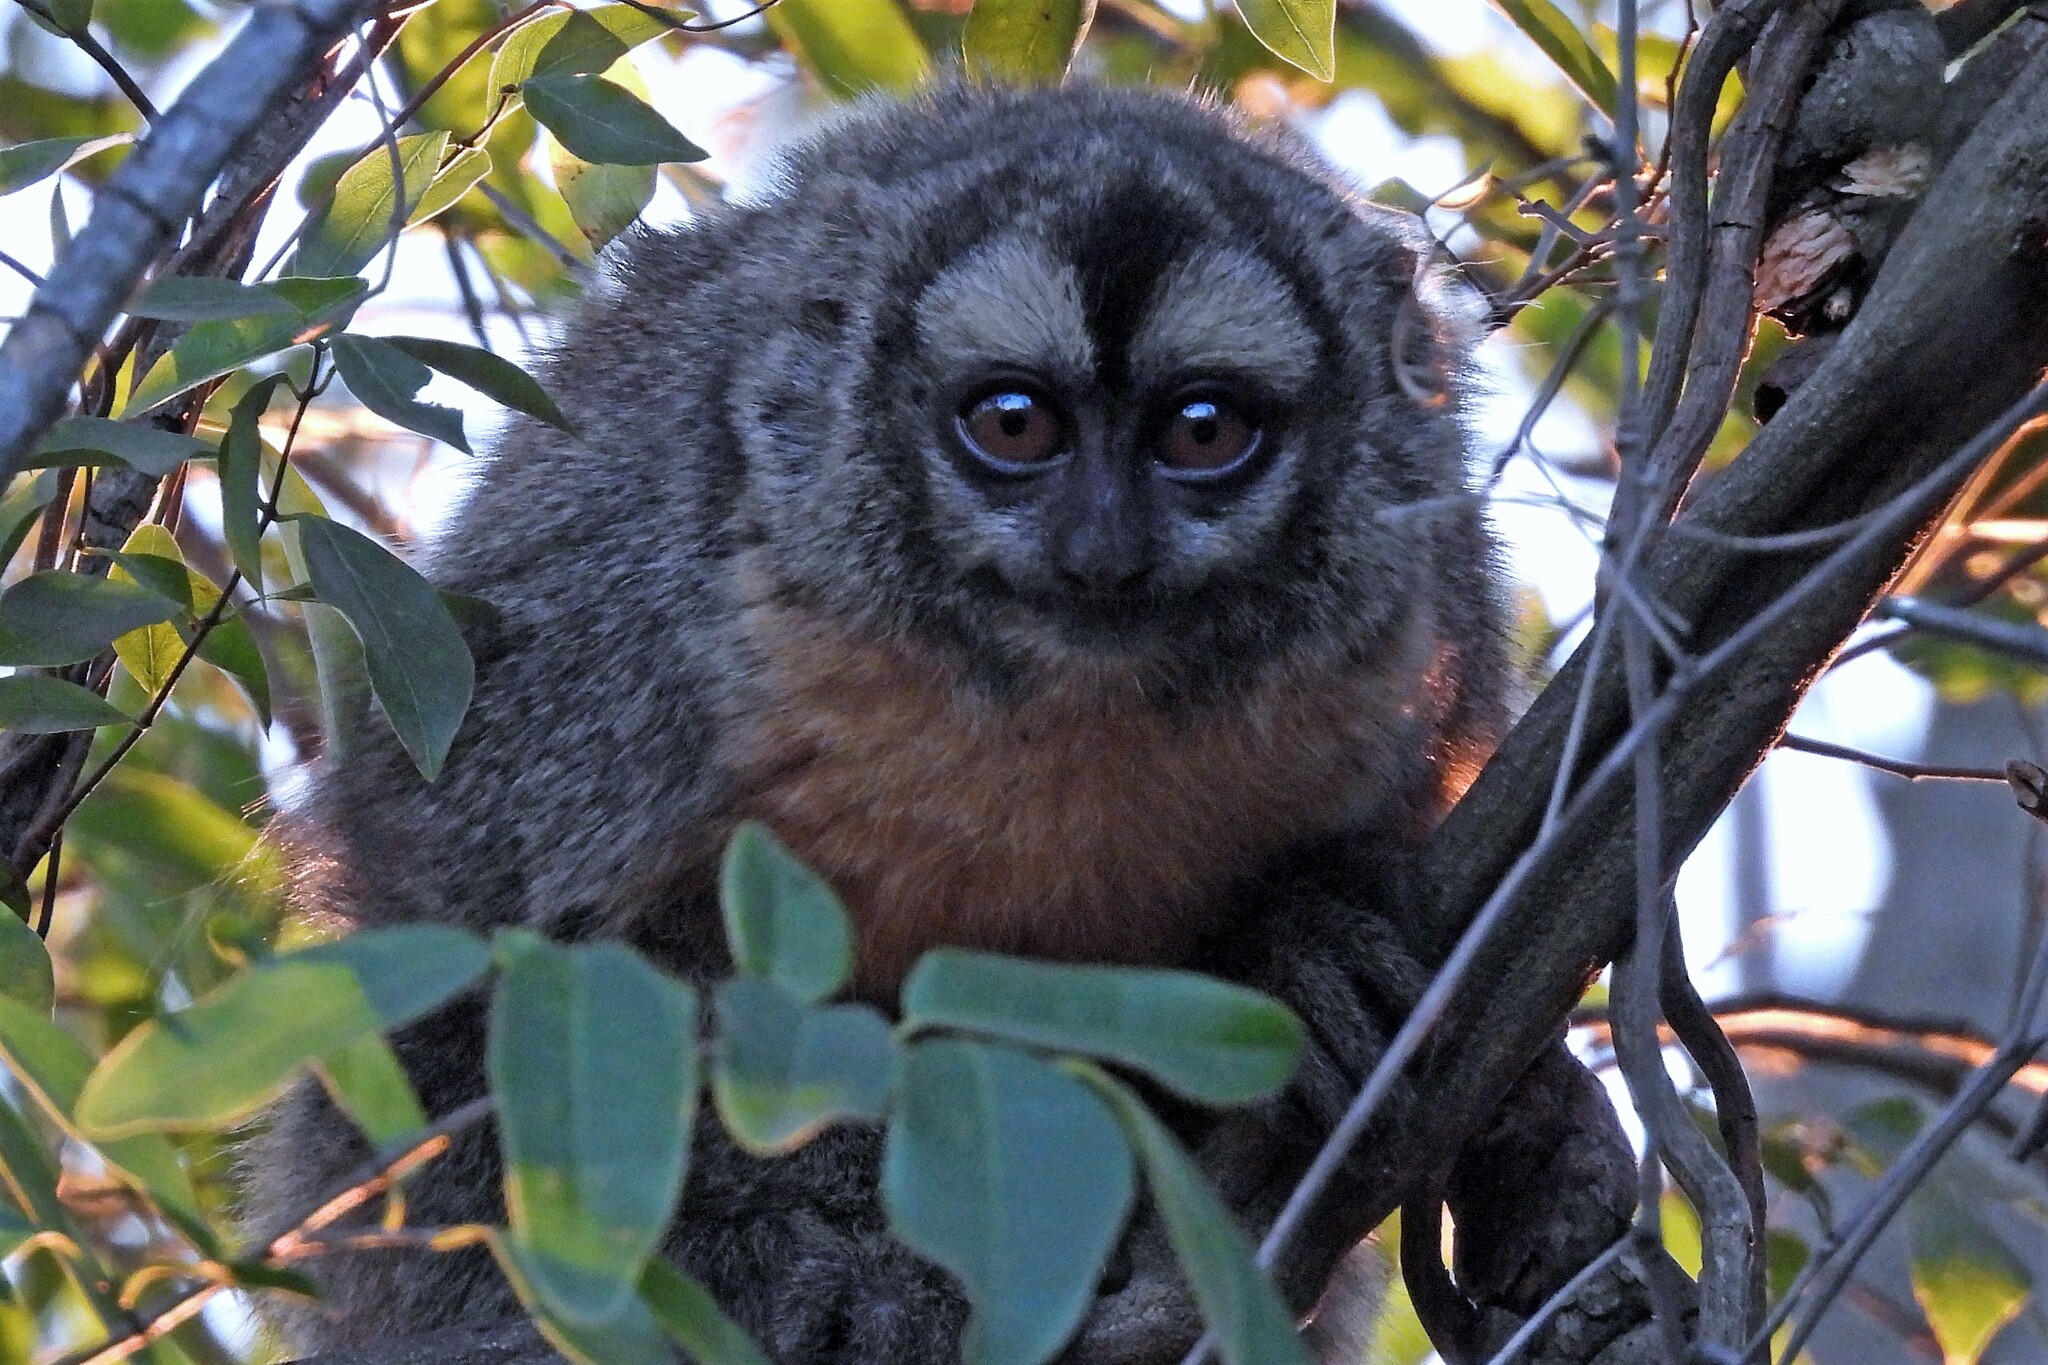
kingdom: Animalia
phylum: Chordata
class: Mammalia
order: Primates
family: Aotidae
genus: Aotus
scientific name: Aotus azarae
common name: Azara's night monkey
